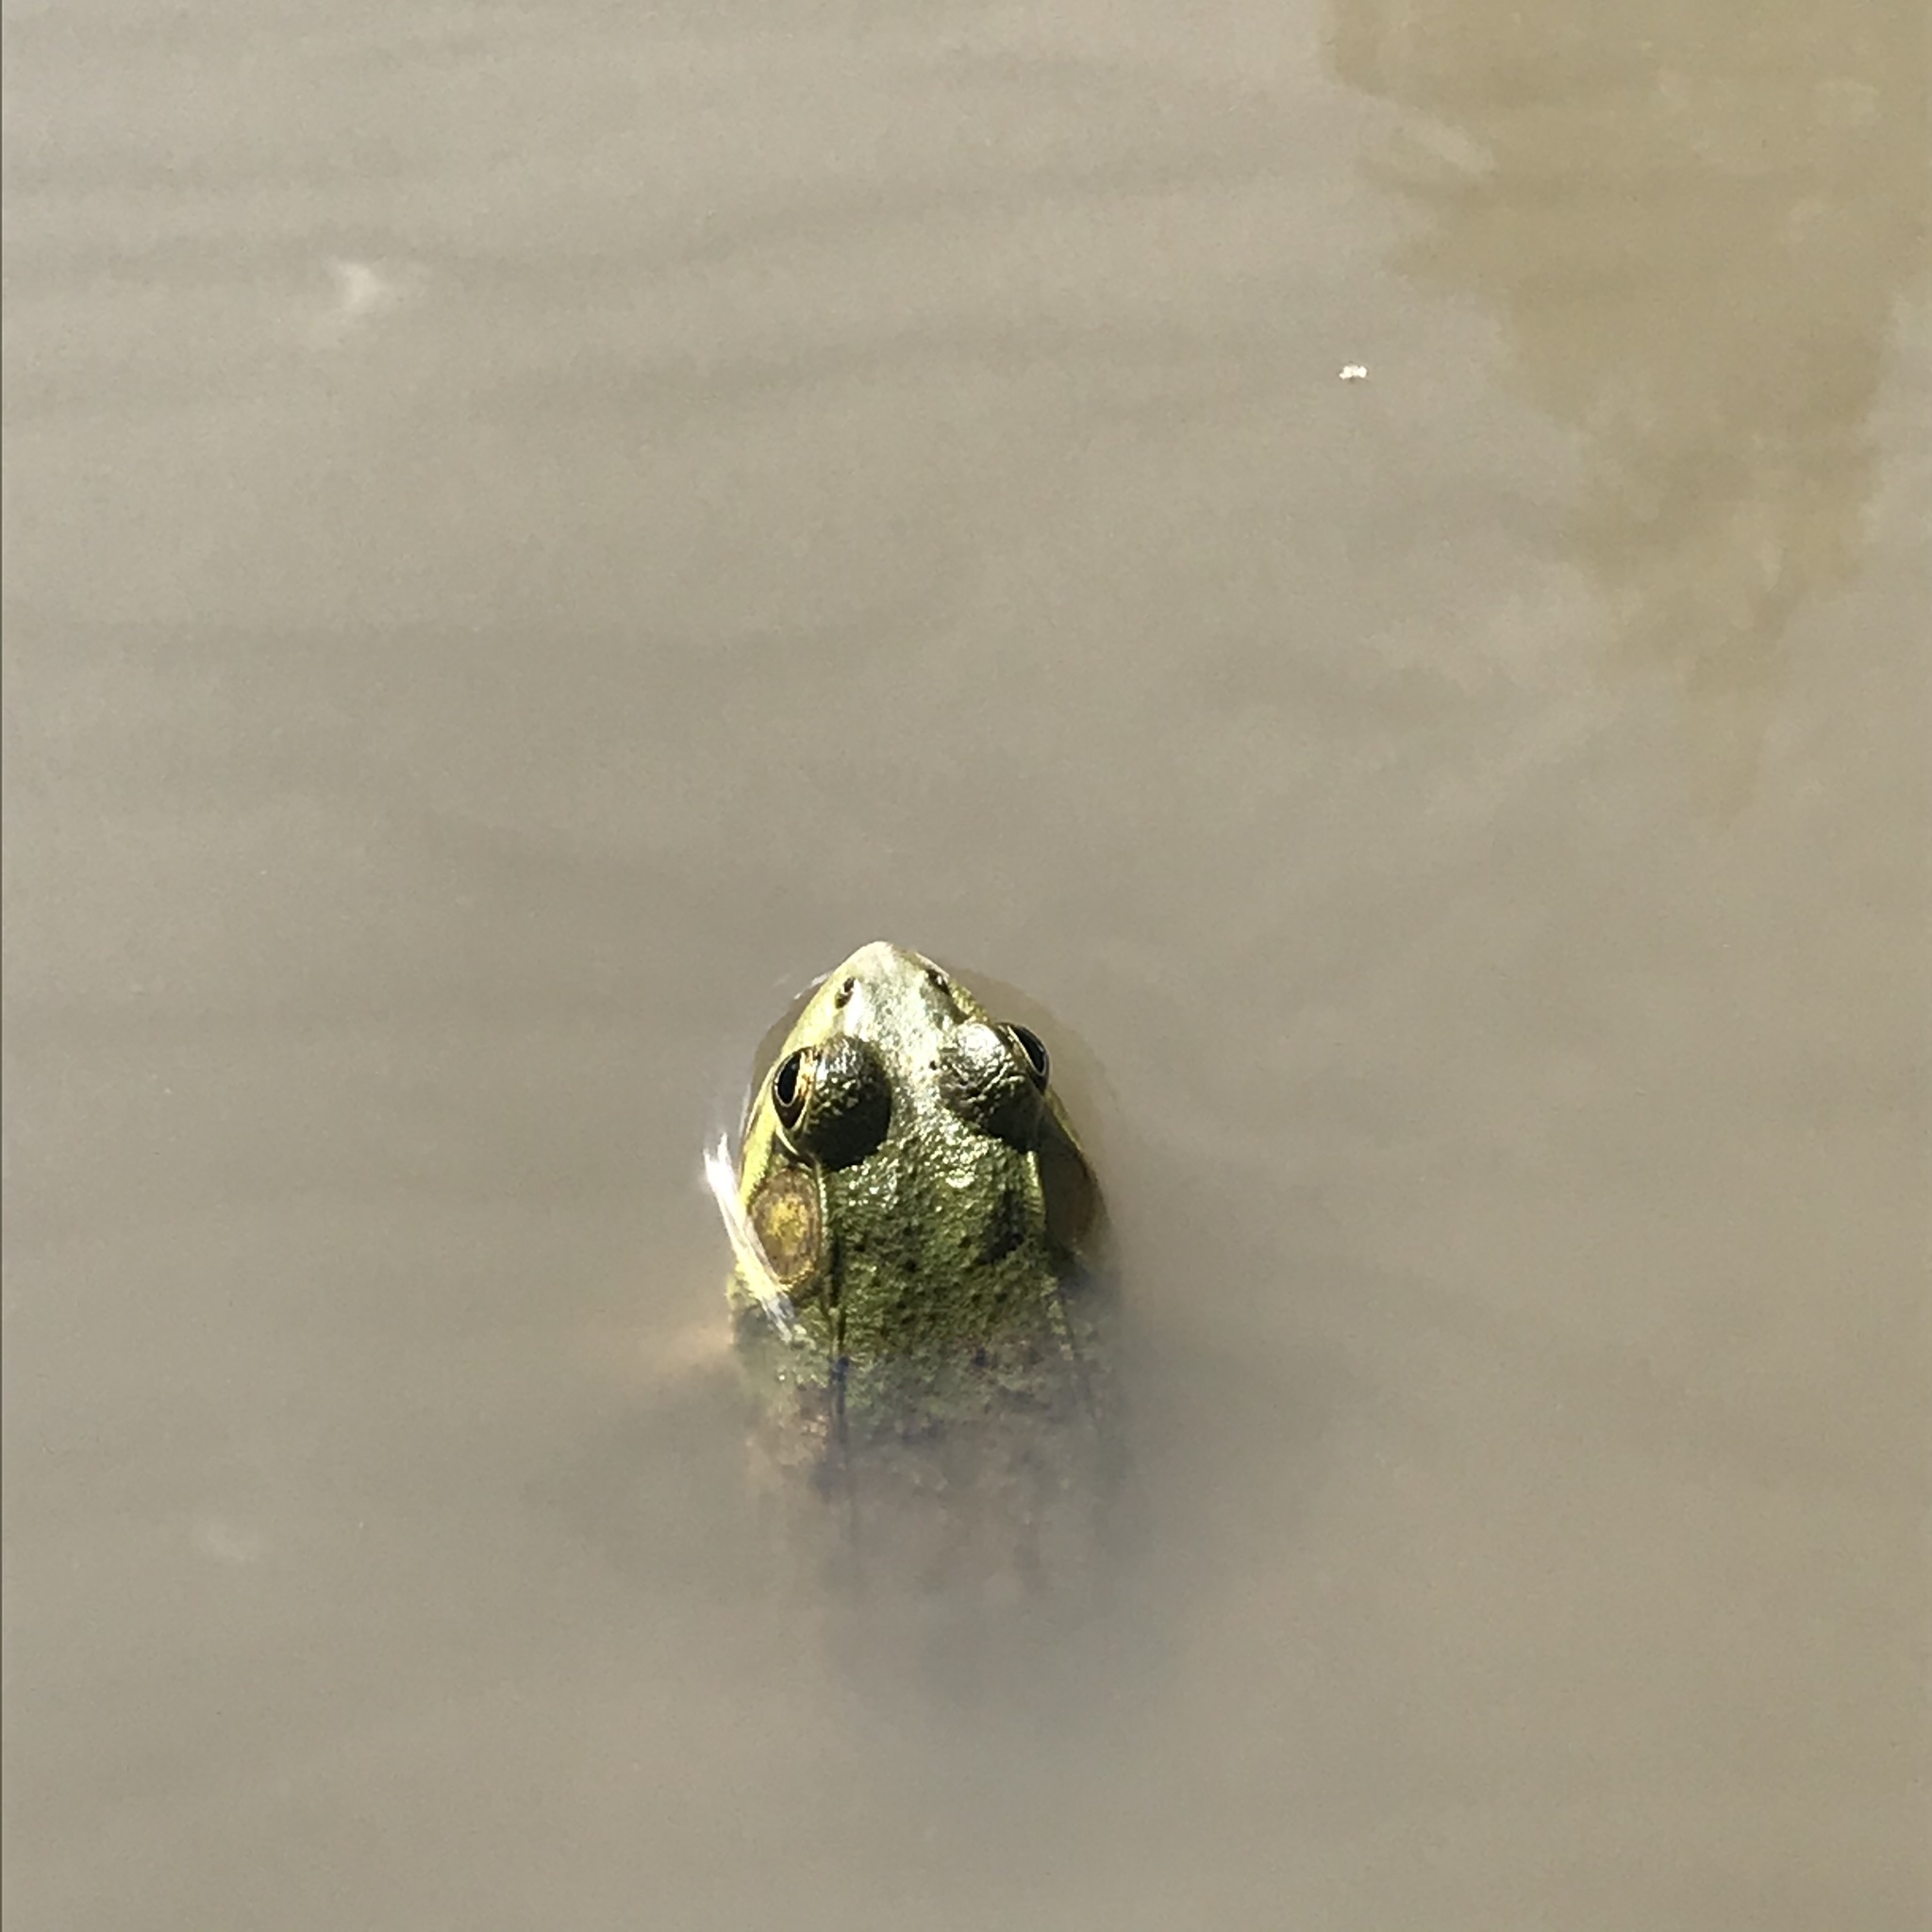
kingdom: Animalia
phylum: Chordata
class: Amphibia
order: Anura
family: Ranidae
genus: Lithobates
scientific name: Lithobates clamitans
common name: Green frog
